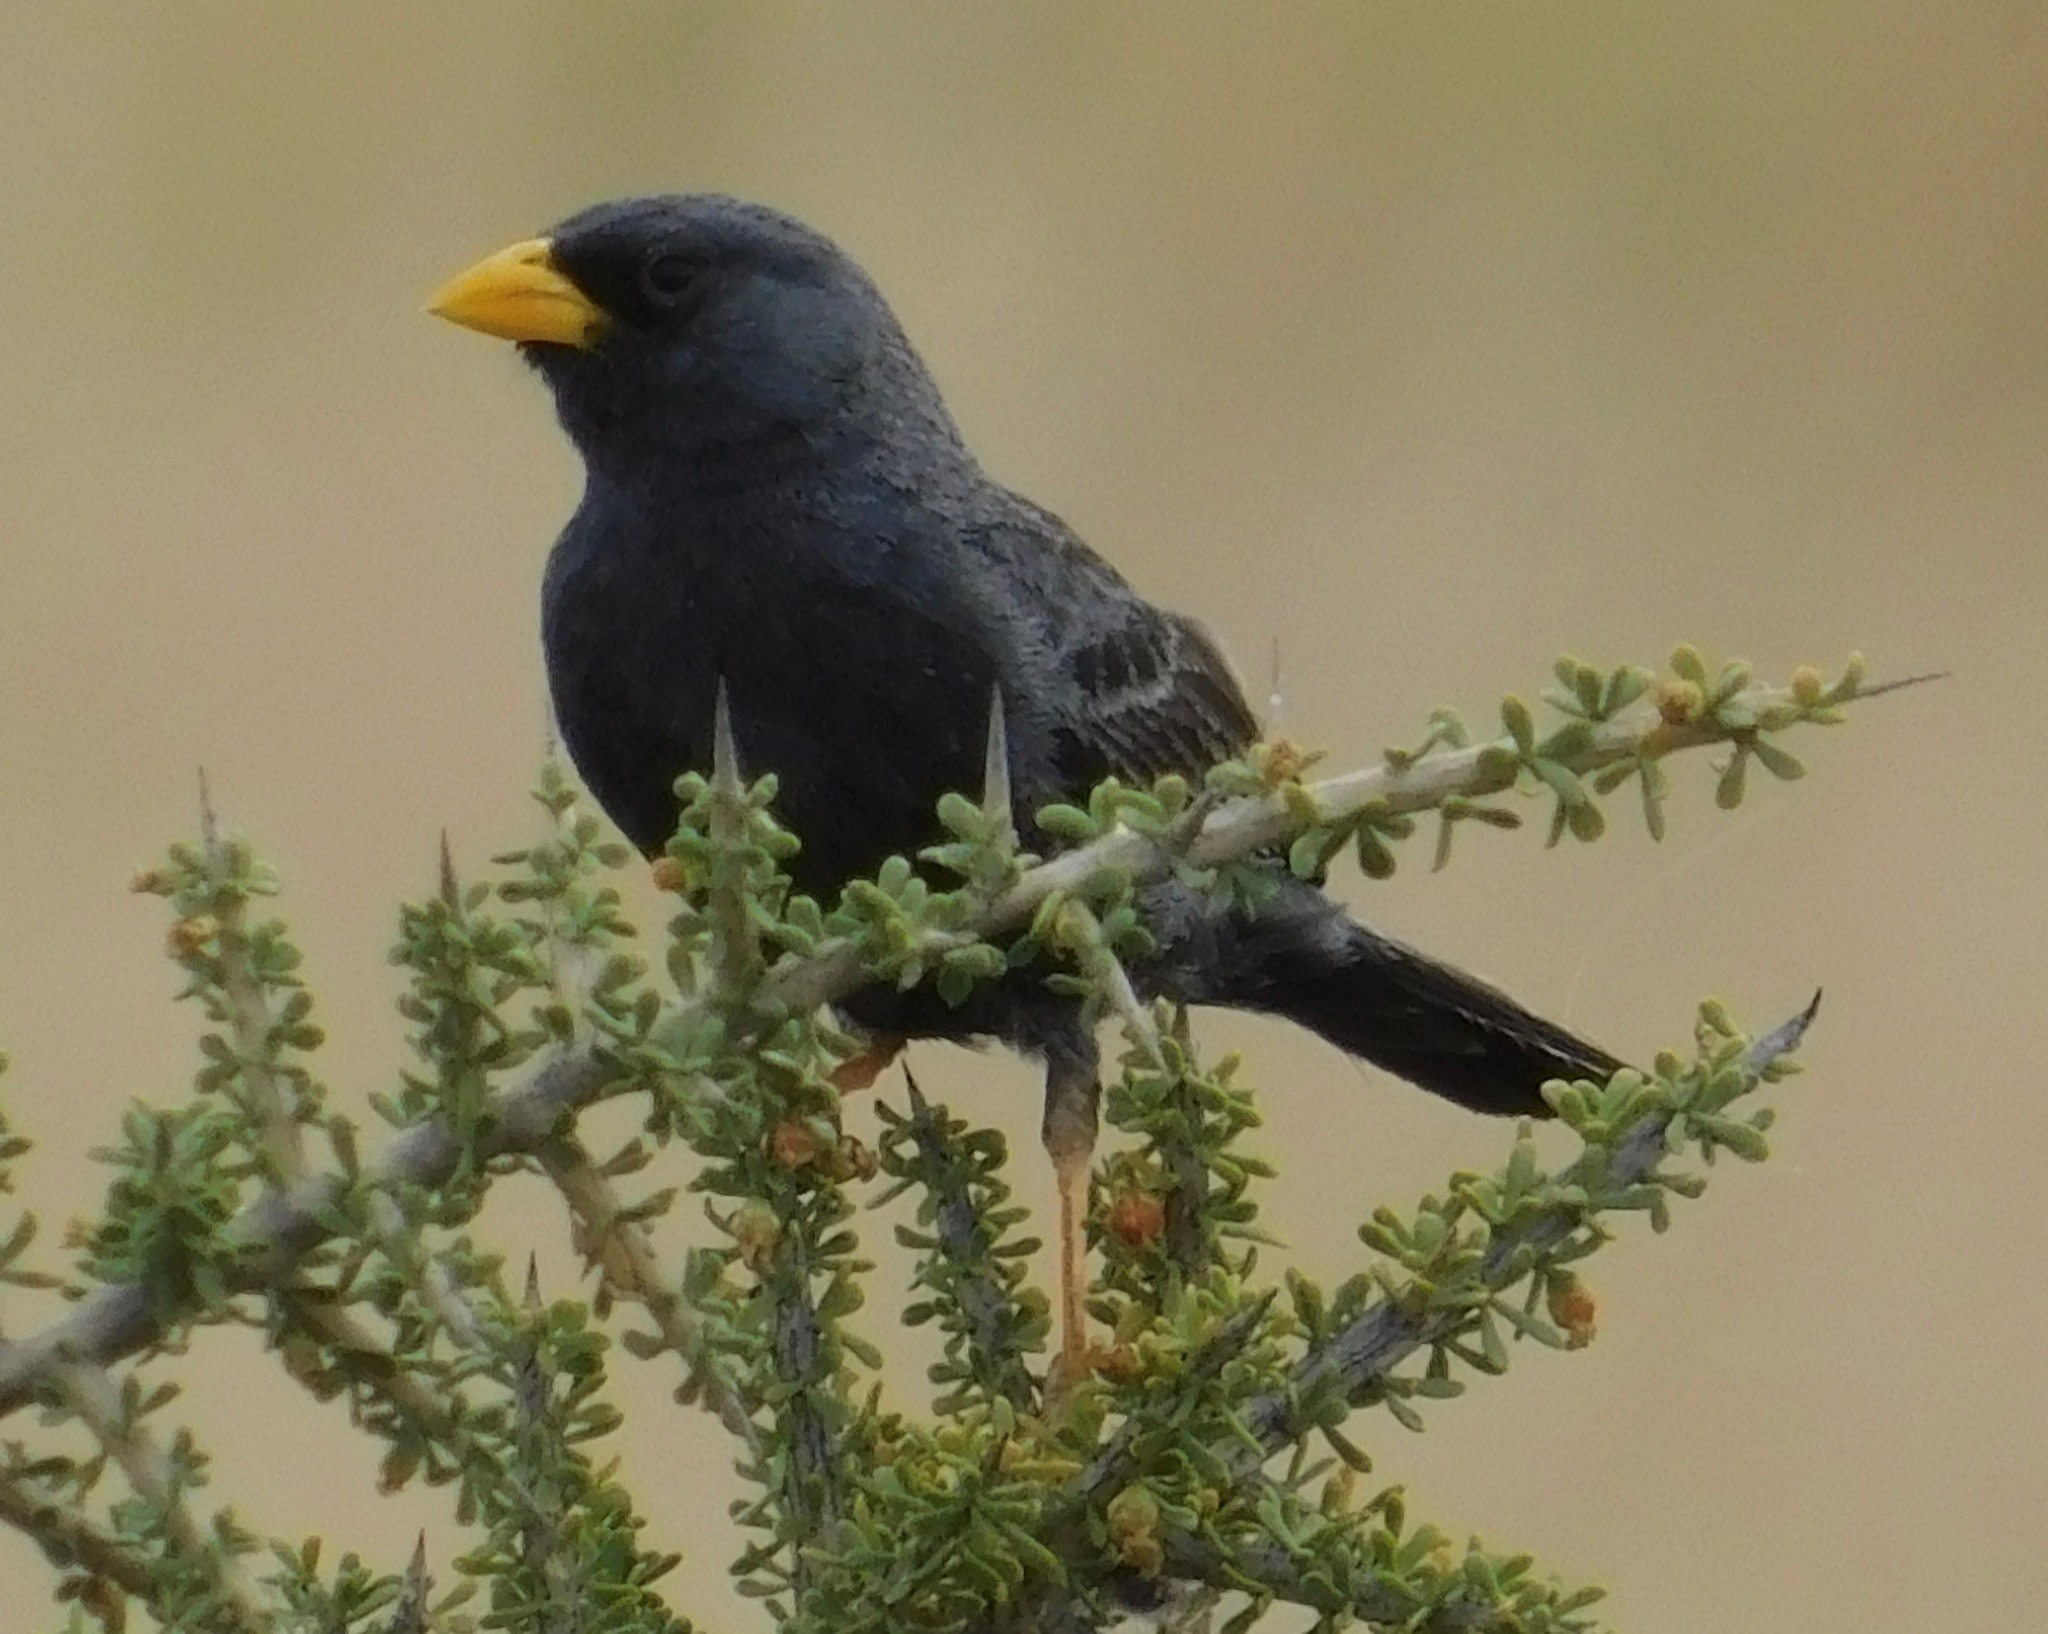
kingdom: Animalia
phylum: Chordata
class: Aves
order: Passeriformes
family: Thraupidae
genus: Porphyrospiza
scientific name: Porphyrospiza carbonaria
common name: Carbon finch
